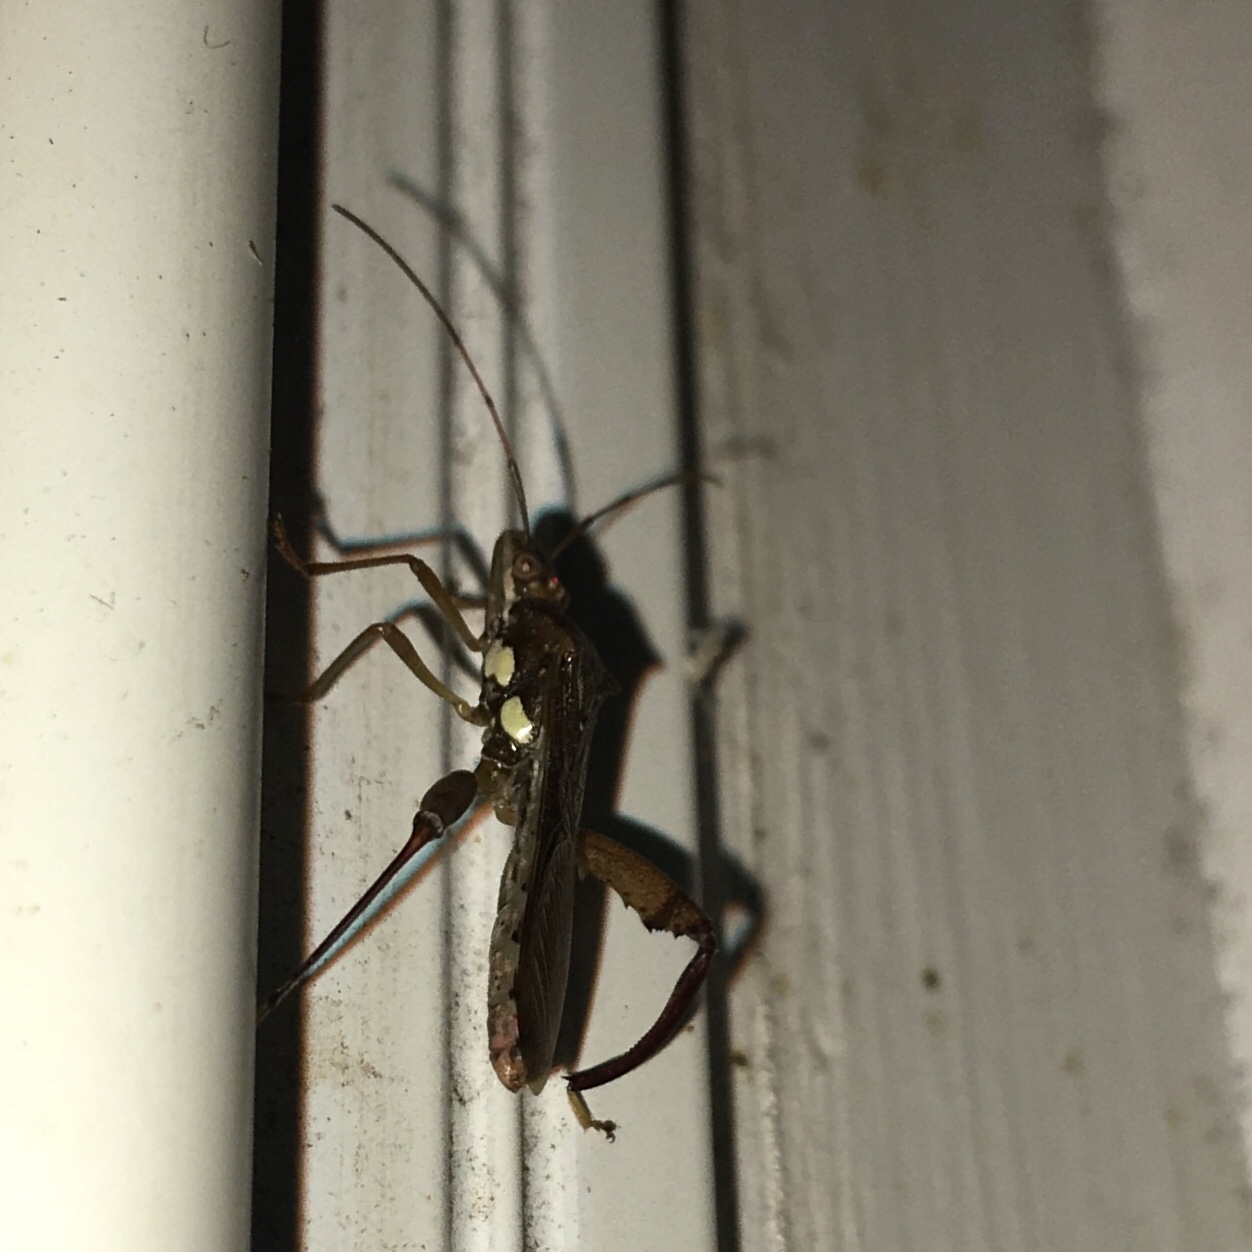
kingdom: Animalia
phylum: Arthropoda
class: Insecta
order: Hemiptera
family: Alydidae
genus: Hyalymenus
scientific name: Hyalymenus tarsatus
